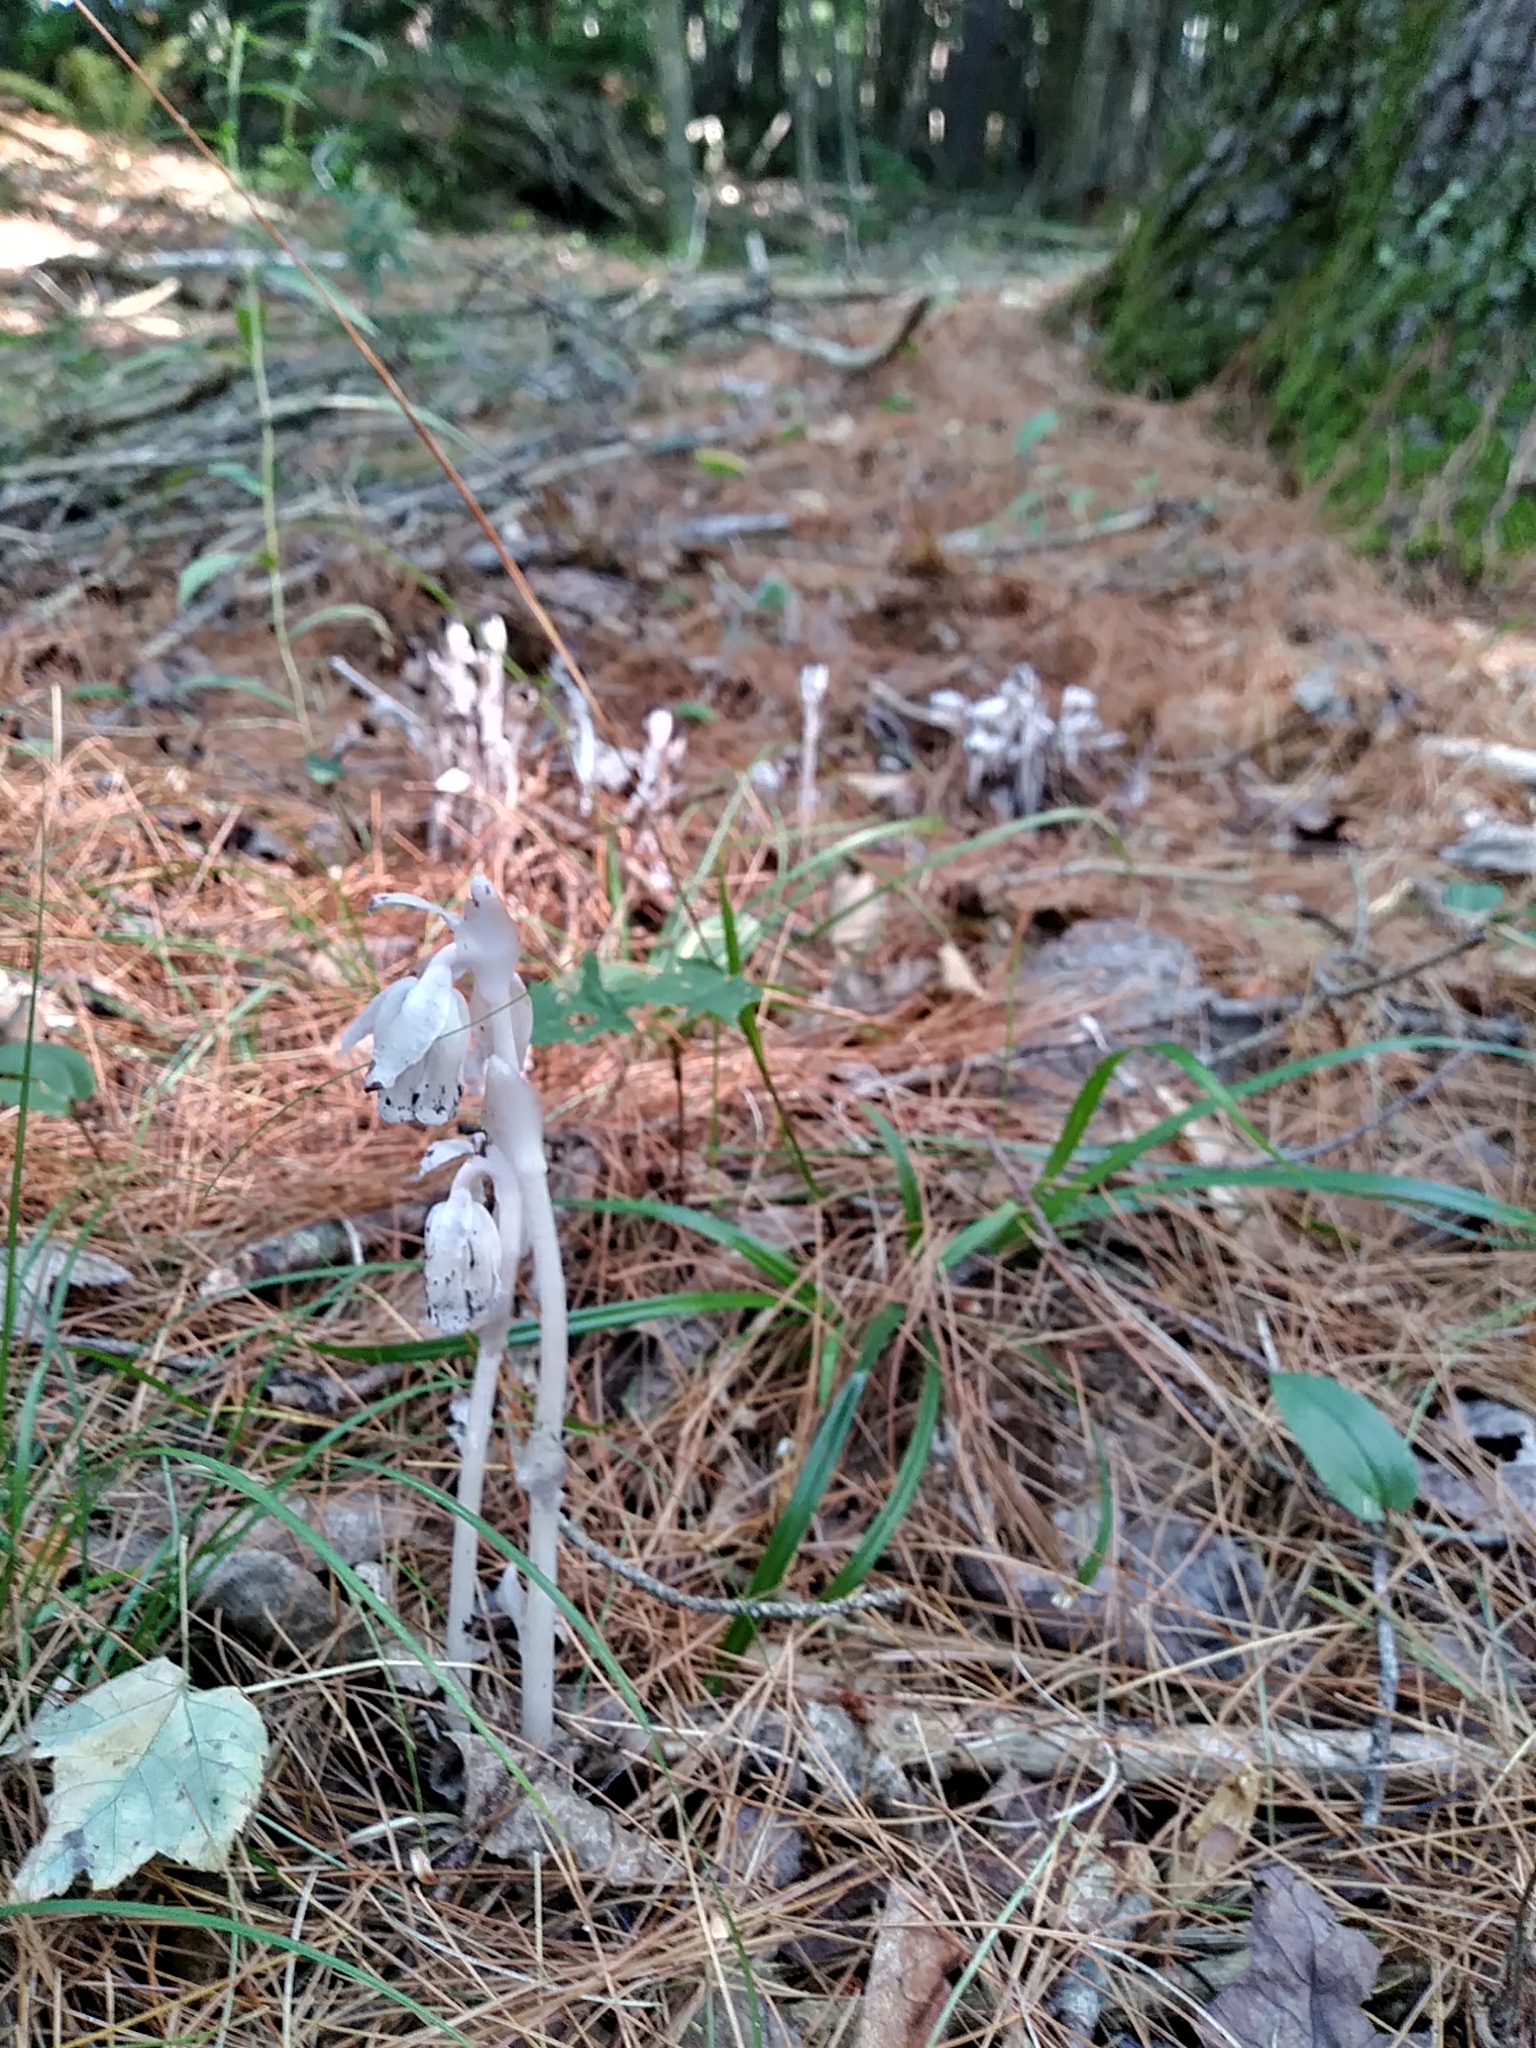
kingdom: Plantae
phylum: Tracheophyta
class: Magnoliopsida
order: Ericales
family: Ericaceae
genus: Monotropa
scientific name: Monotropa uniflora
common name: Convulsion root
